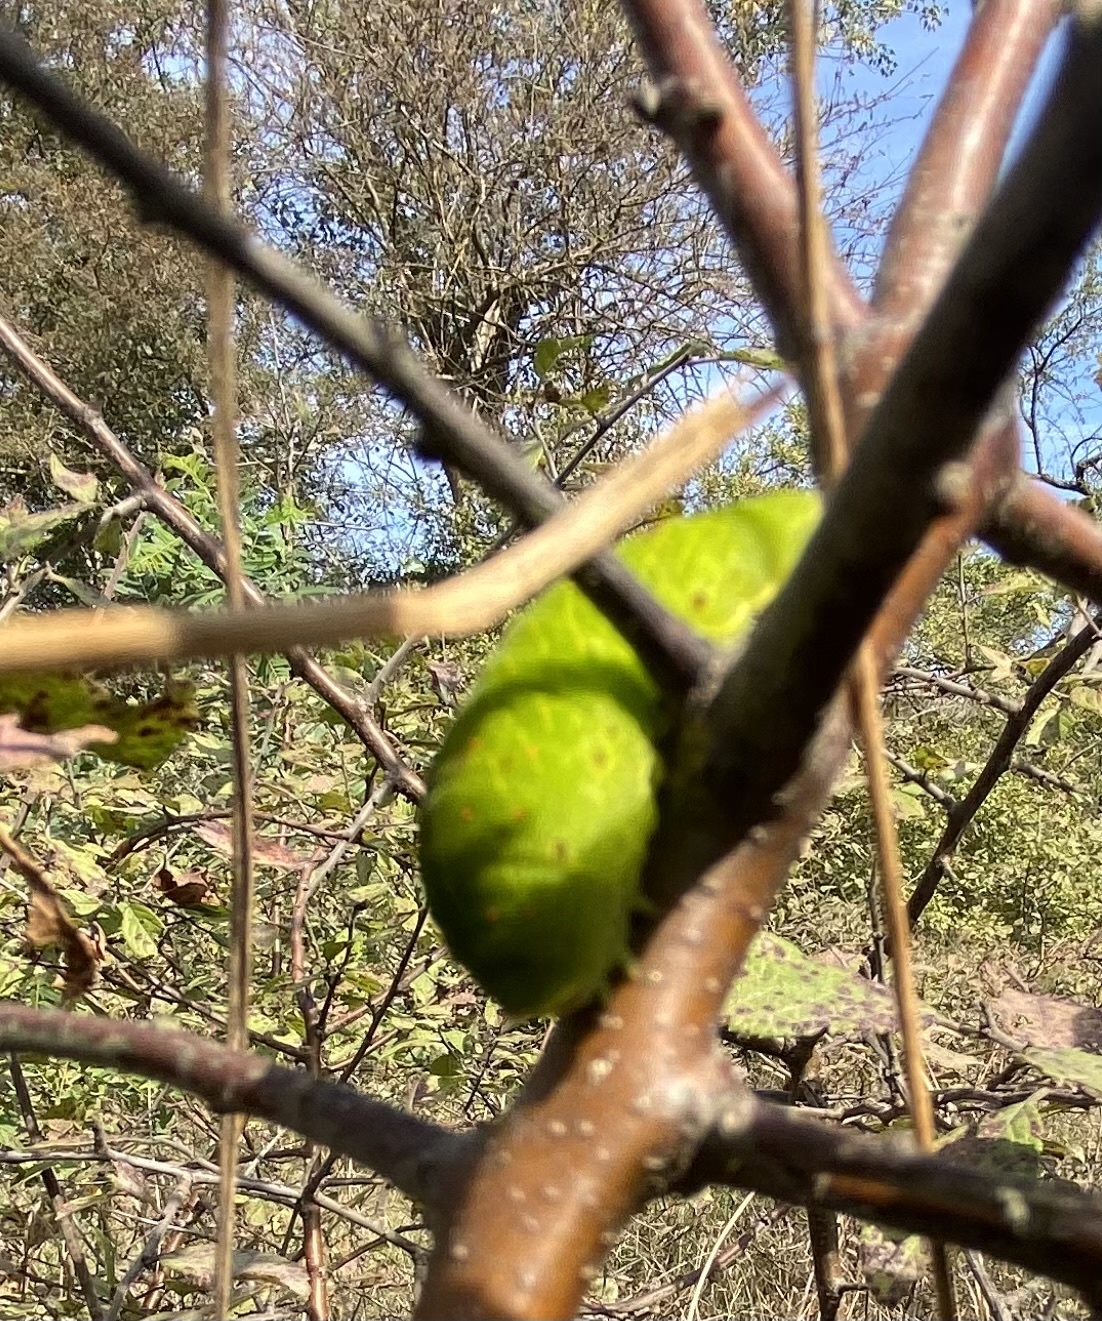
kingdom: Animalia
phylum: Arthropoda
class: Insecta
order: Lepidoptera
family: Papilionidae
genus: Iphiclides
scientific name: Iphiclides podalirius
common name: Scarce swallowtail
